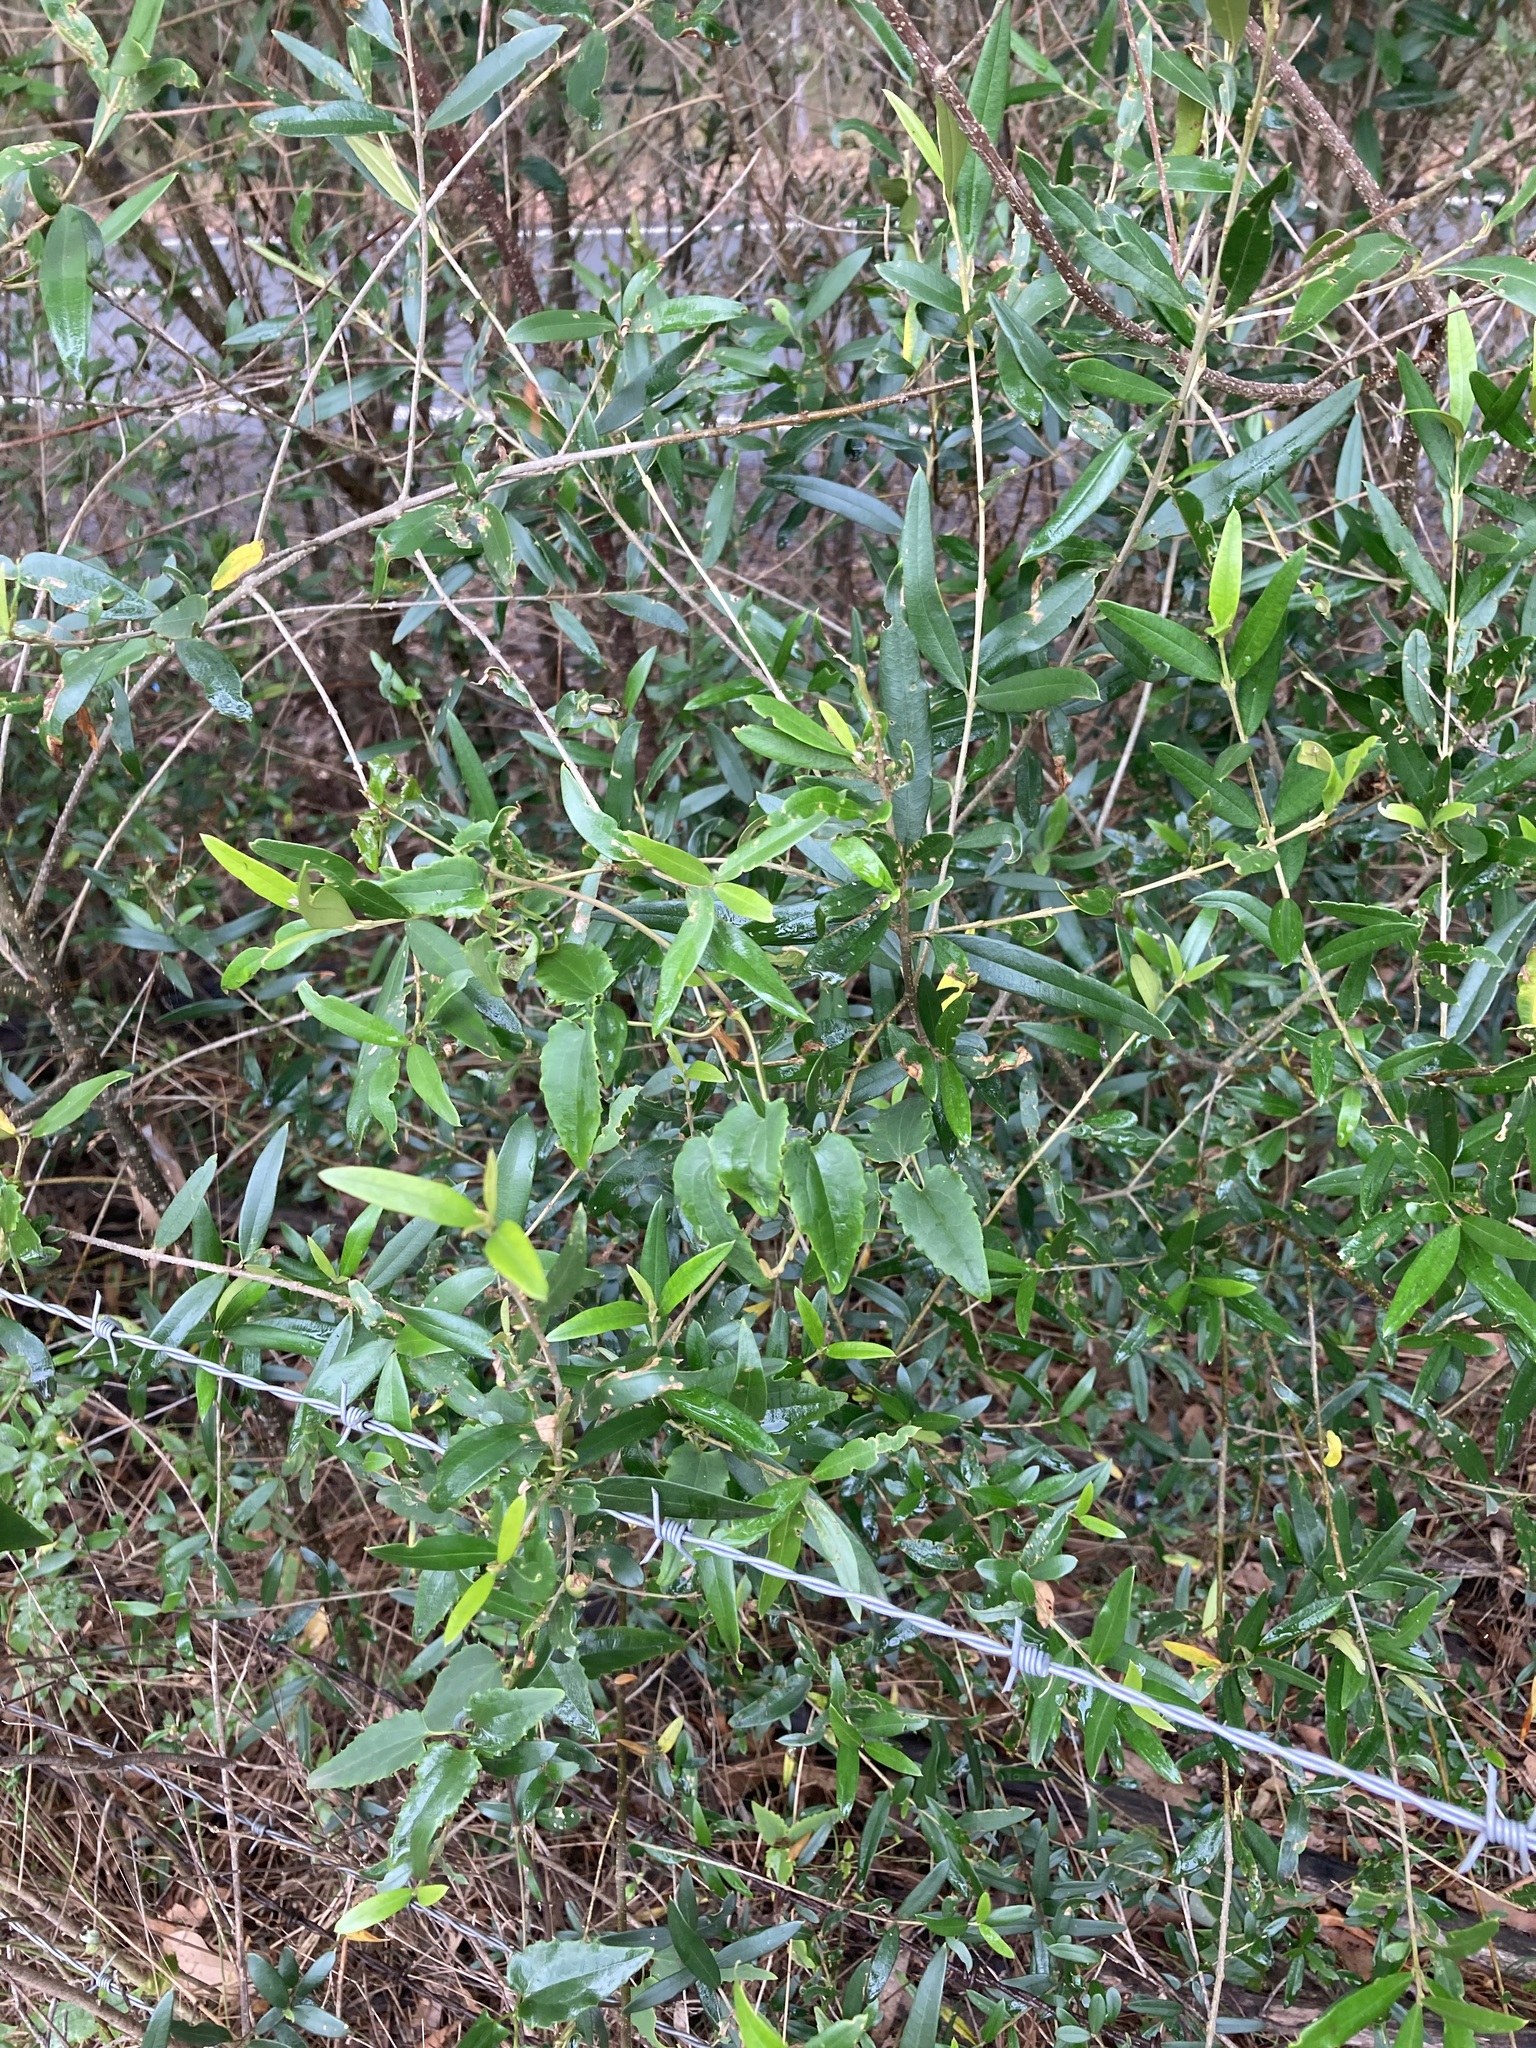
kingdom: Plantae
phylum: Tracheophyta
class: Magnoliopsida
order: Lamiales
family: Oleaceae
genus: Olea
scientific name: Olea europaea
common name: Olive
